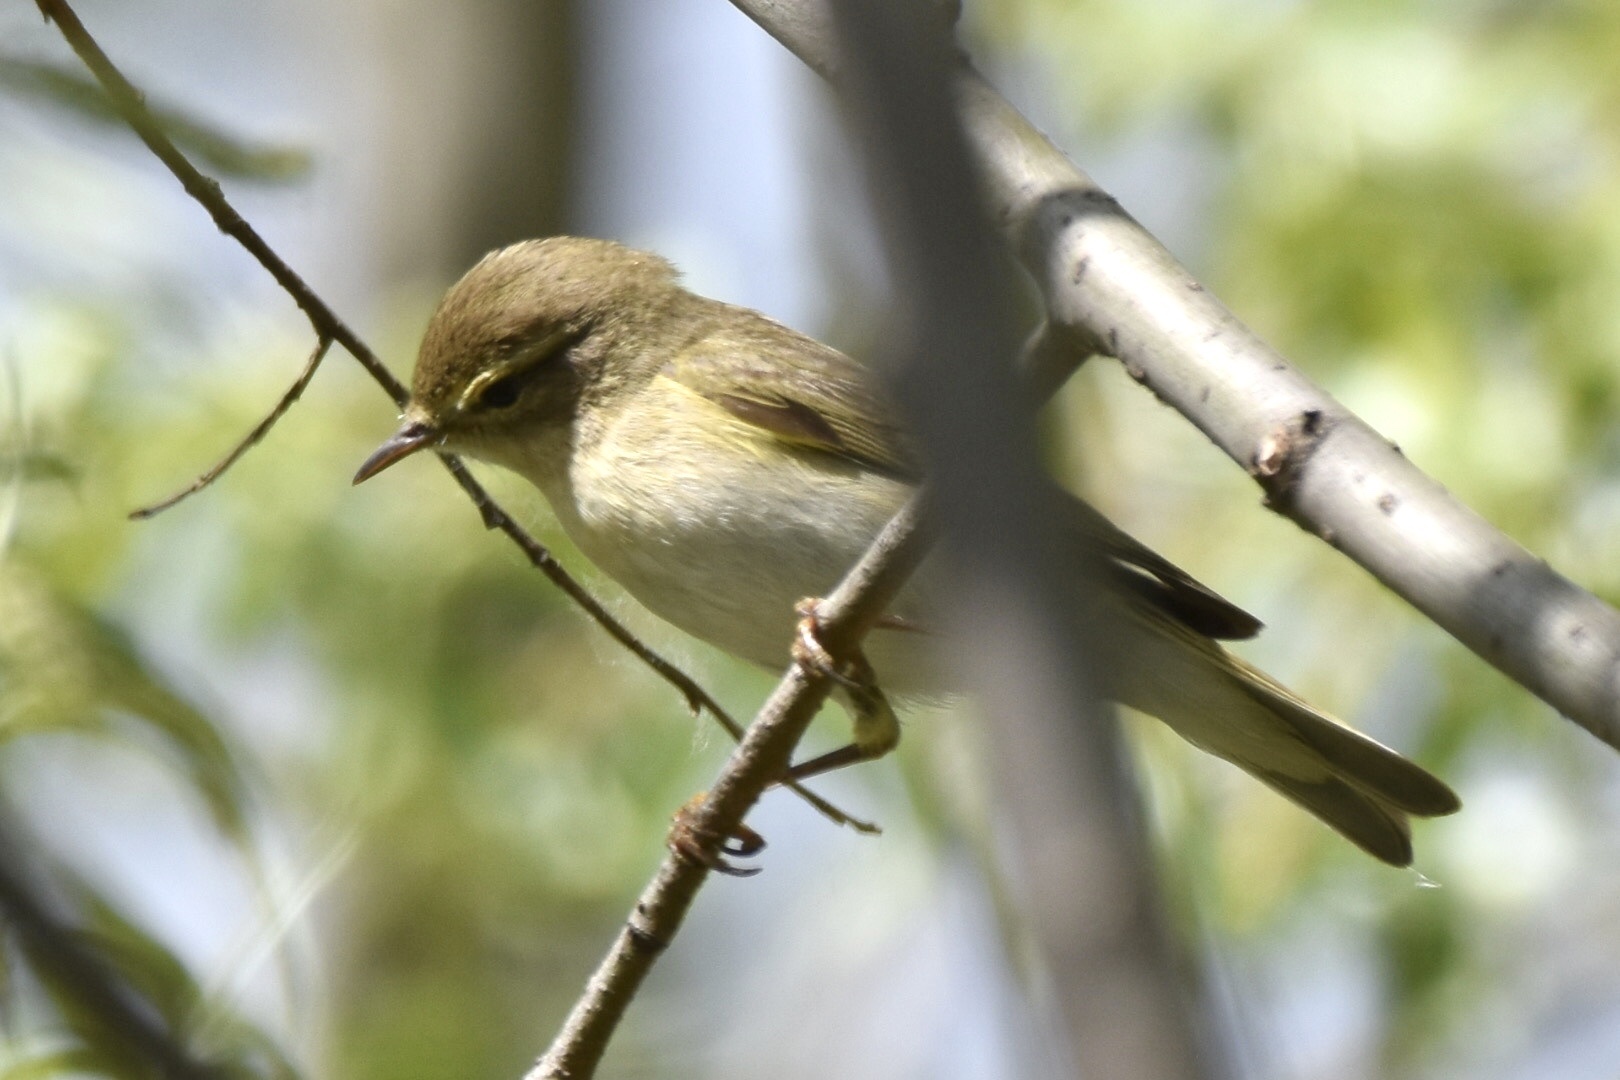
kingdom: Animalia
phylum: Chordata
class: Aves
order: Passeriformes
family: Phylloscopidae
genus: Phylloscopus
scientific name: Phylloscopus trochilus
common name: Willow warbler
